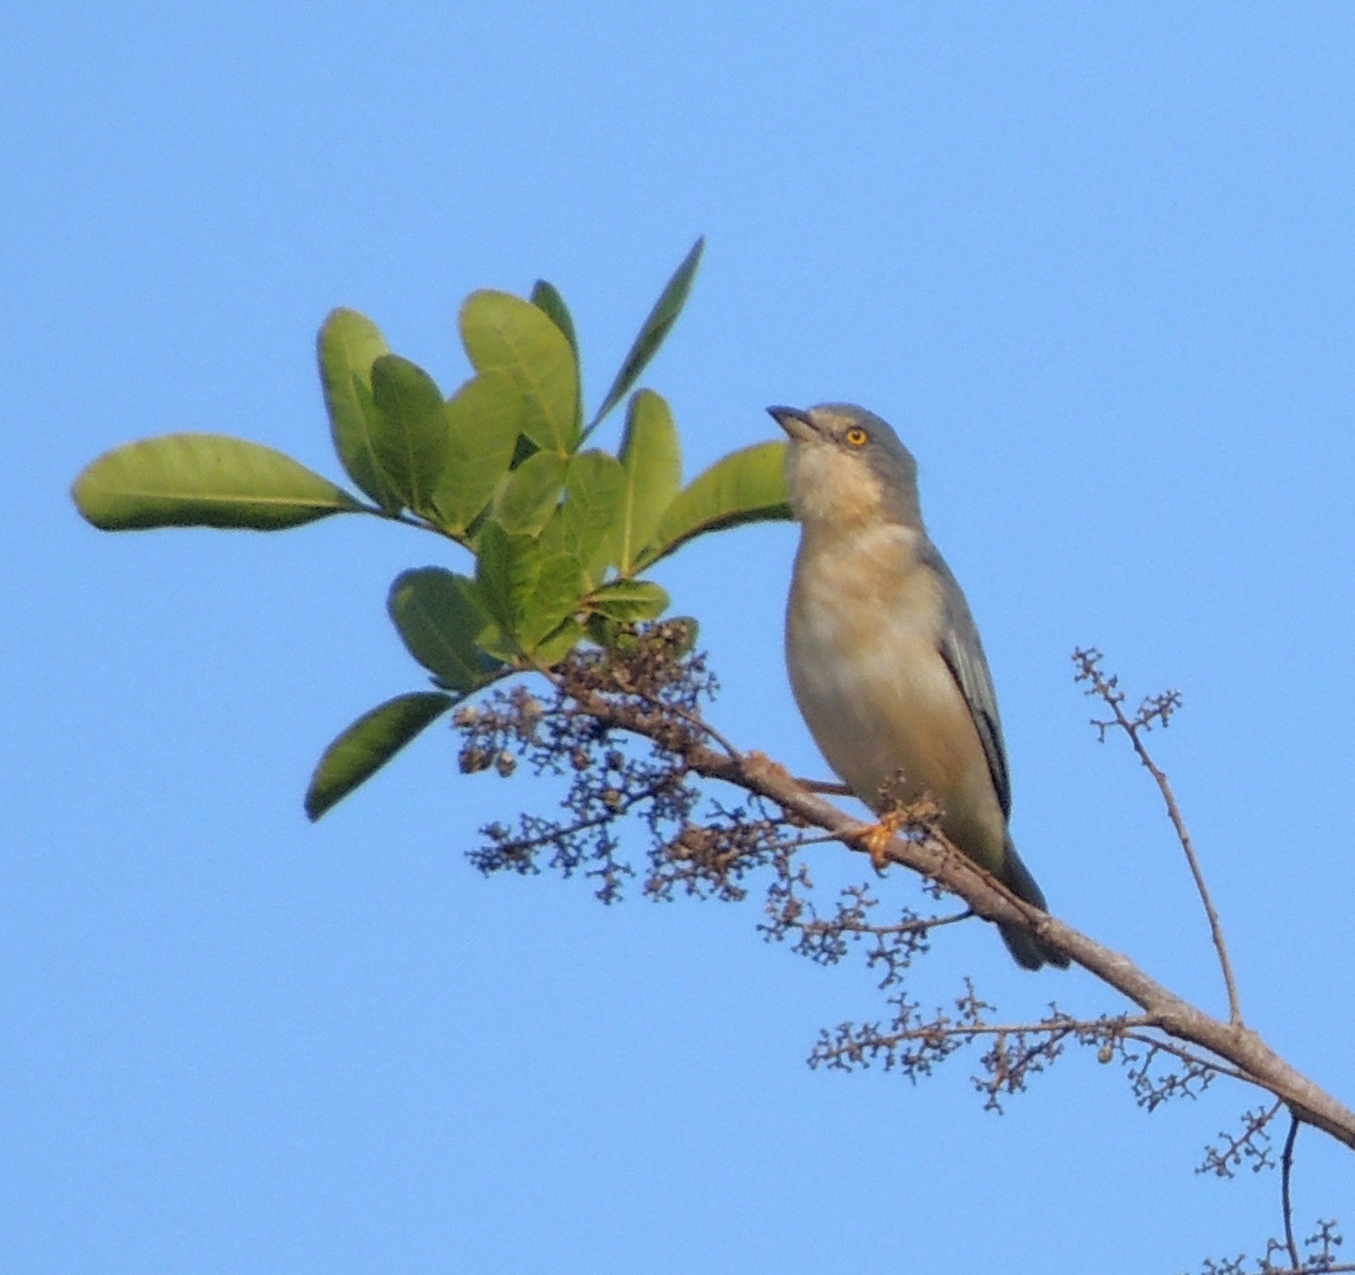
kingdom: Animalia
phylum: Chordata
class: Aves
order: Passeriformes
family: Thraupidae
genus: Nemosia
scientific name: Nemosia pileata
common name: Hooded tanager
